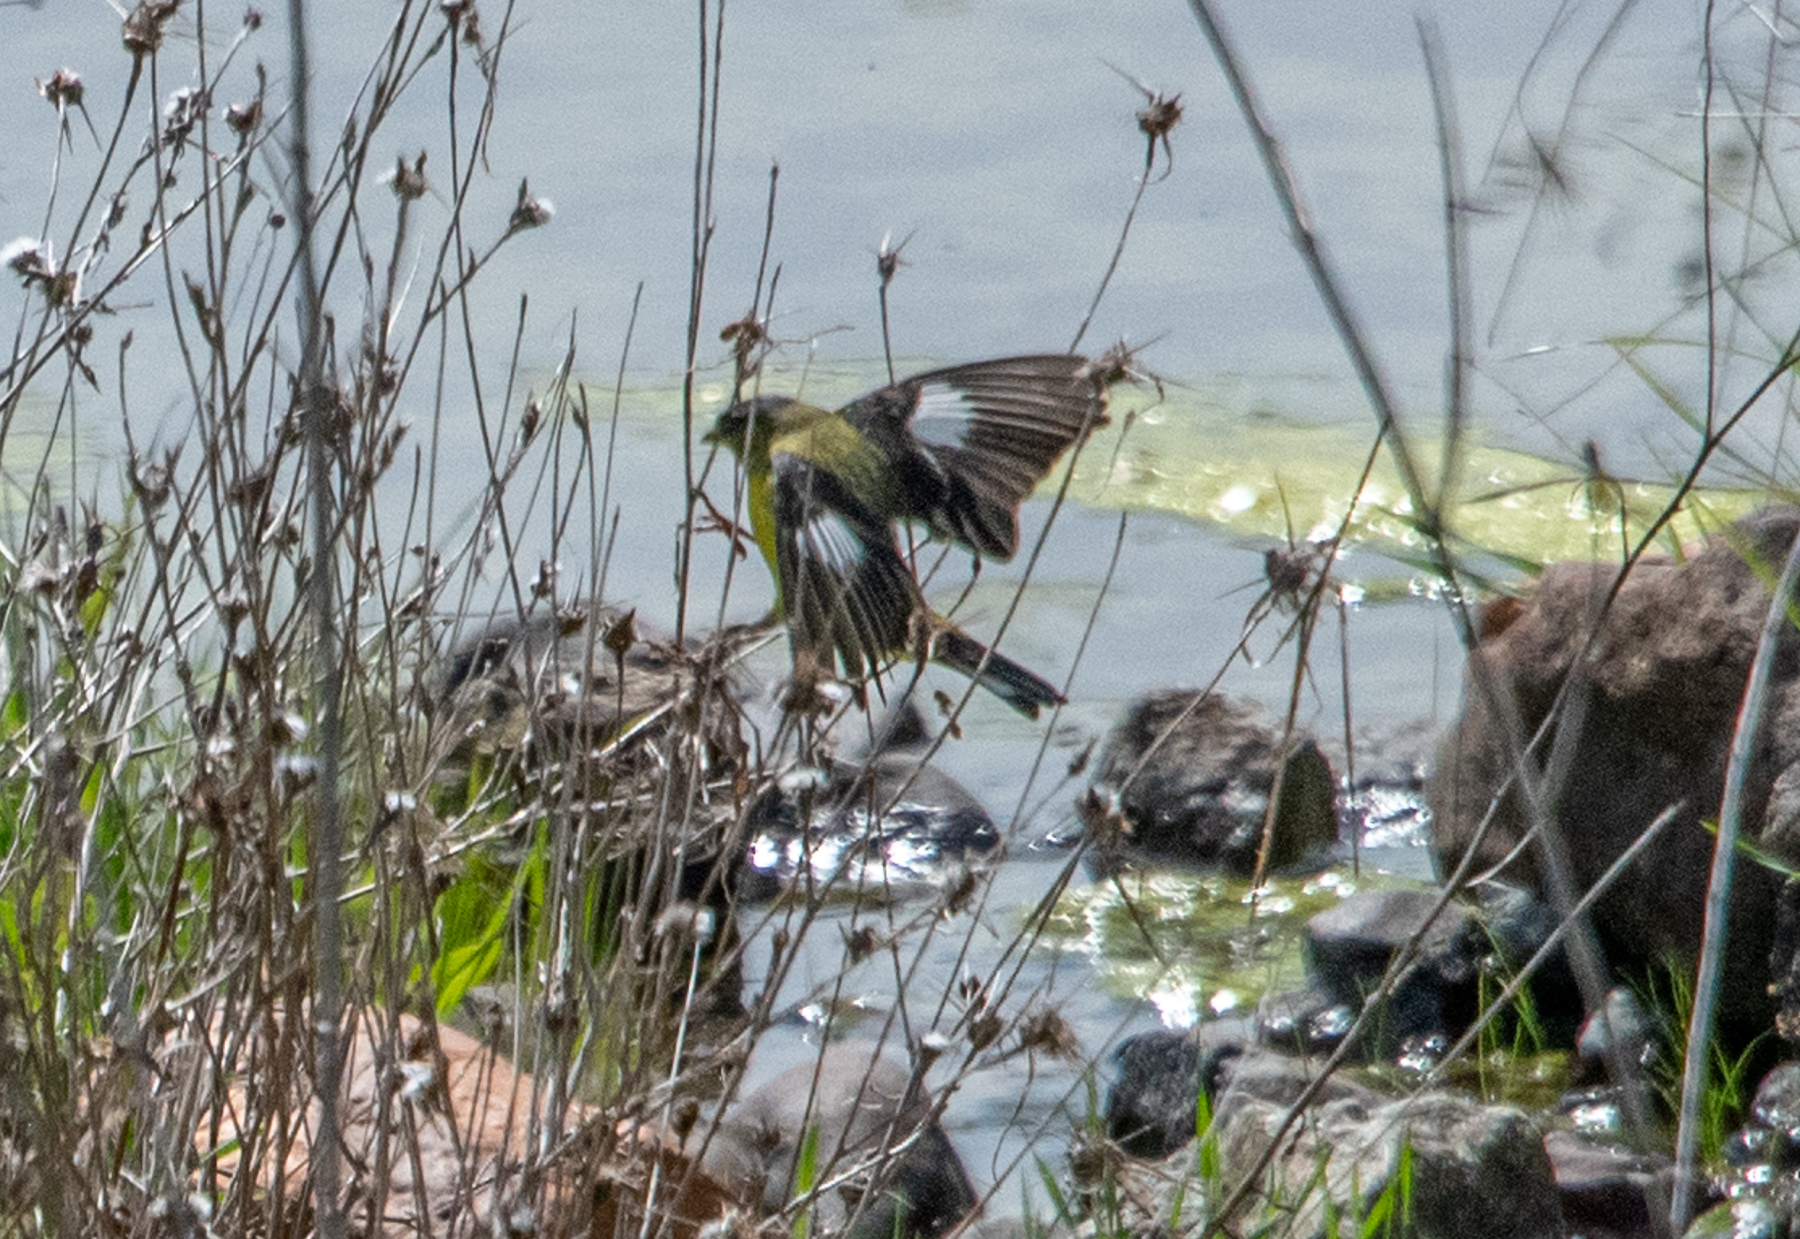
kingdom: Animalia
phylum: Chordata
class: Aves
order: Passeriformes
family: Fringillidae
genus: Spinus
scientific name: Spinus psaltria
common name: Lesser goldfinch
